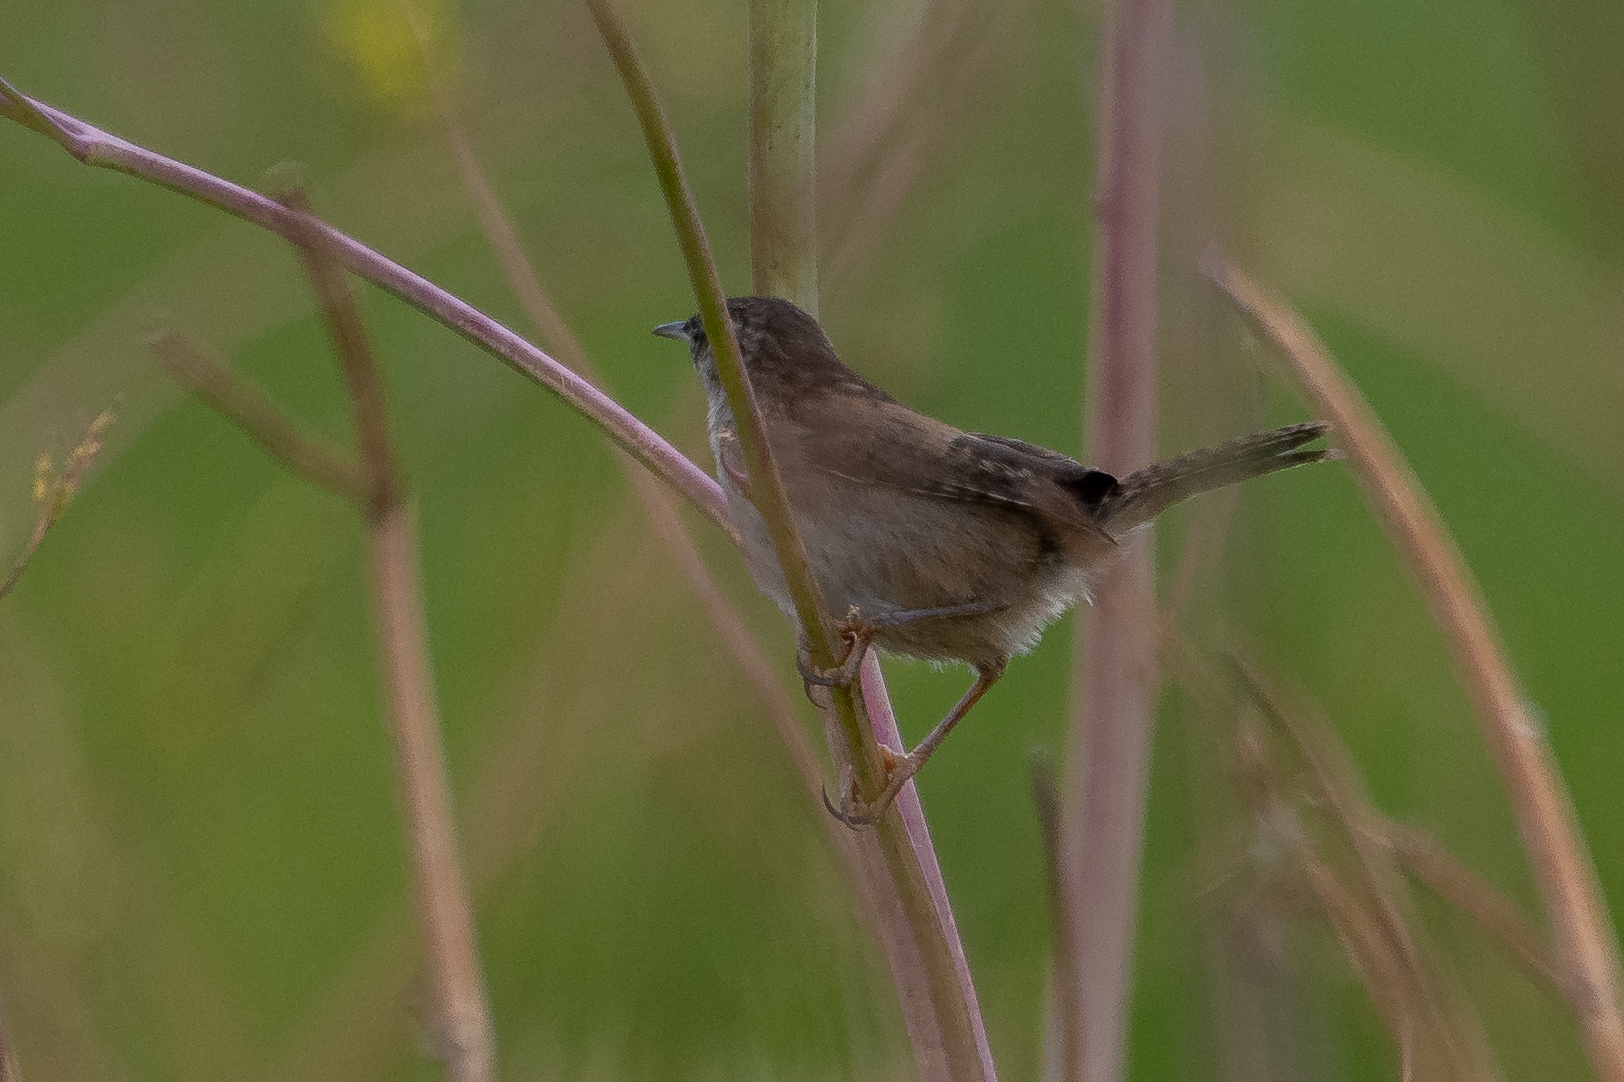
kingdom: Animalia
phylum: Chordata
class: Aves
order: Passeriformes
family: Troglodytidae
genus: Cistothorus
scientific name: Cistothorus palustris
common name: Marsh wren
